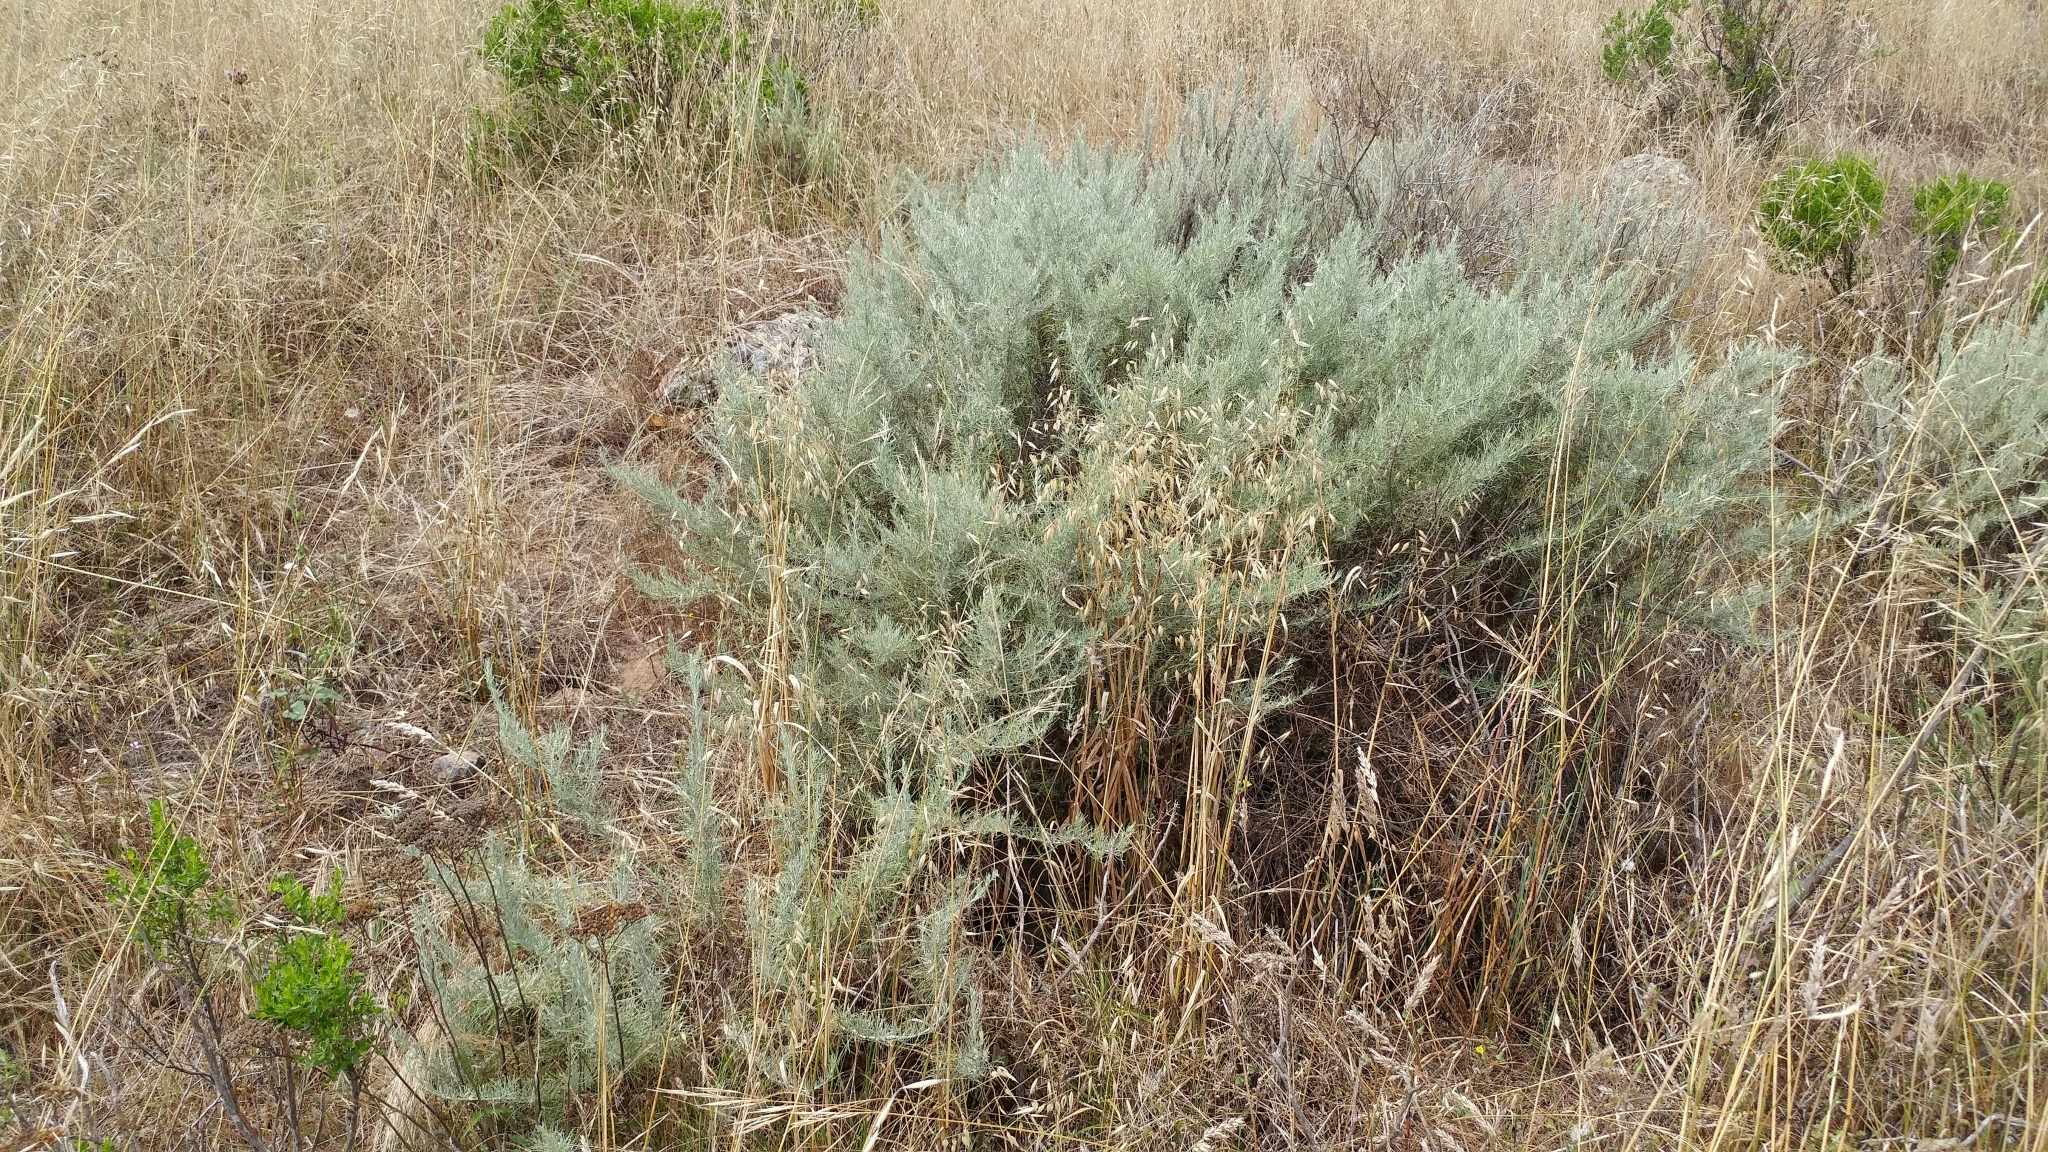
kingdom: Plantae
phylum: Tracheophyta
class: Magnoliopsida
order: Asterales
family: Asteraceae
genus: Artemisia
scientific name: Artemisia californica
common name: California sagebrush
